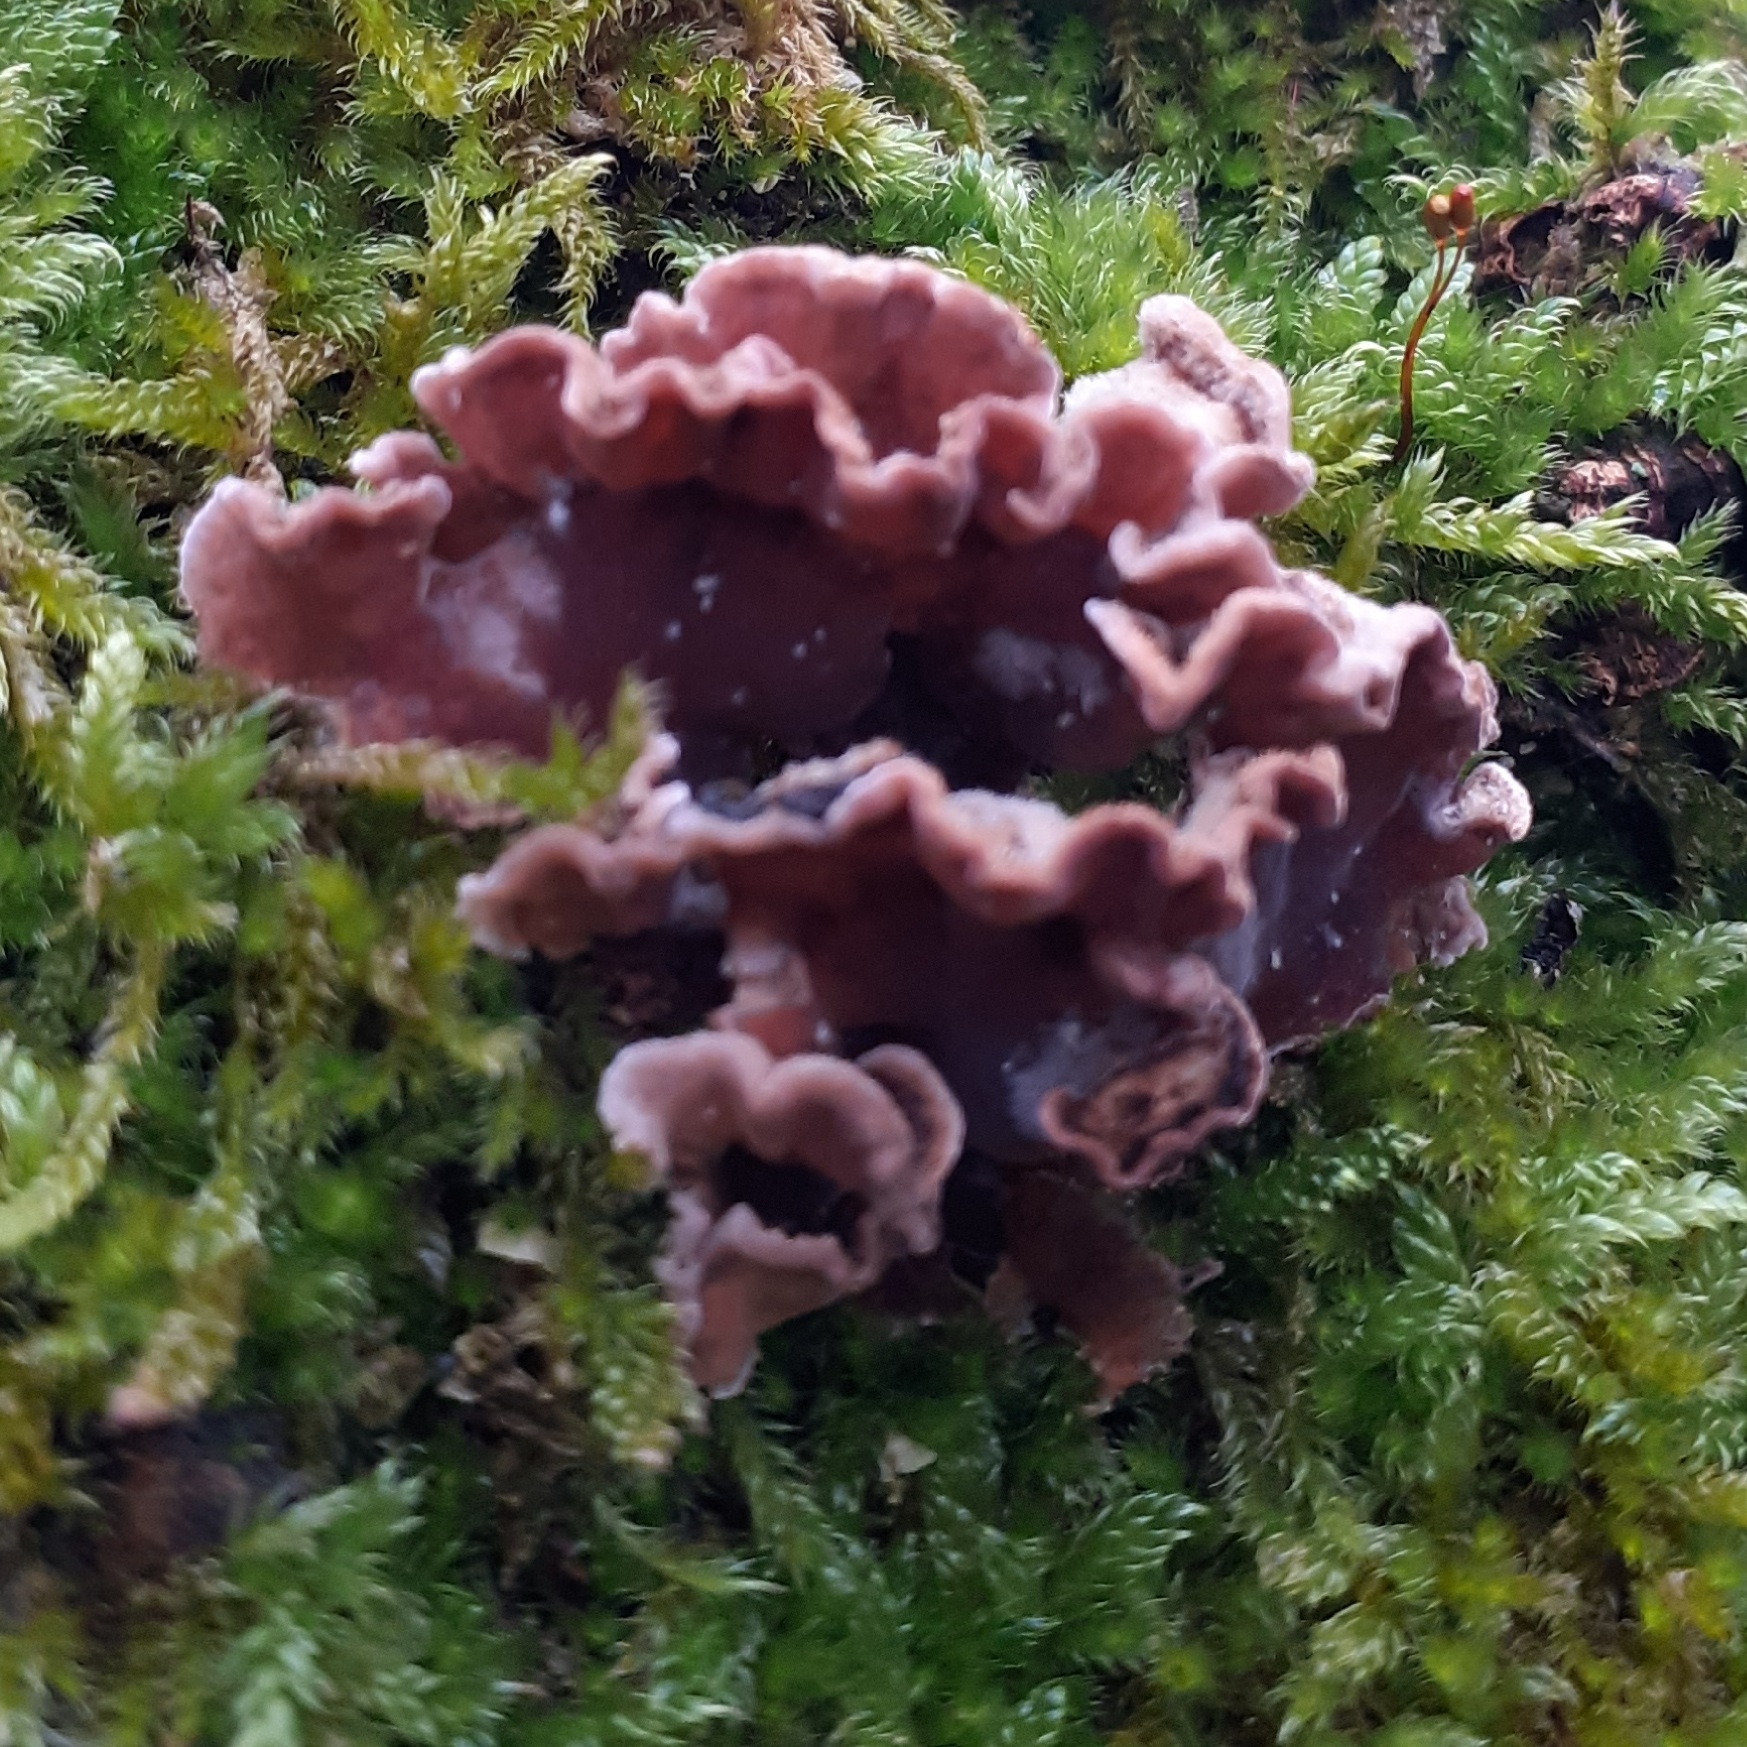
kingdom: Fungi
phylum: Basidiomycota
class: Agaricomycetes
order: Agaricales
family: Cyphellaceae
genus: Chondrostereum
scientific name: Chondrostereum purpureum
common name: Silver leaf disease
